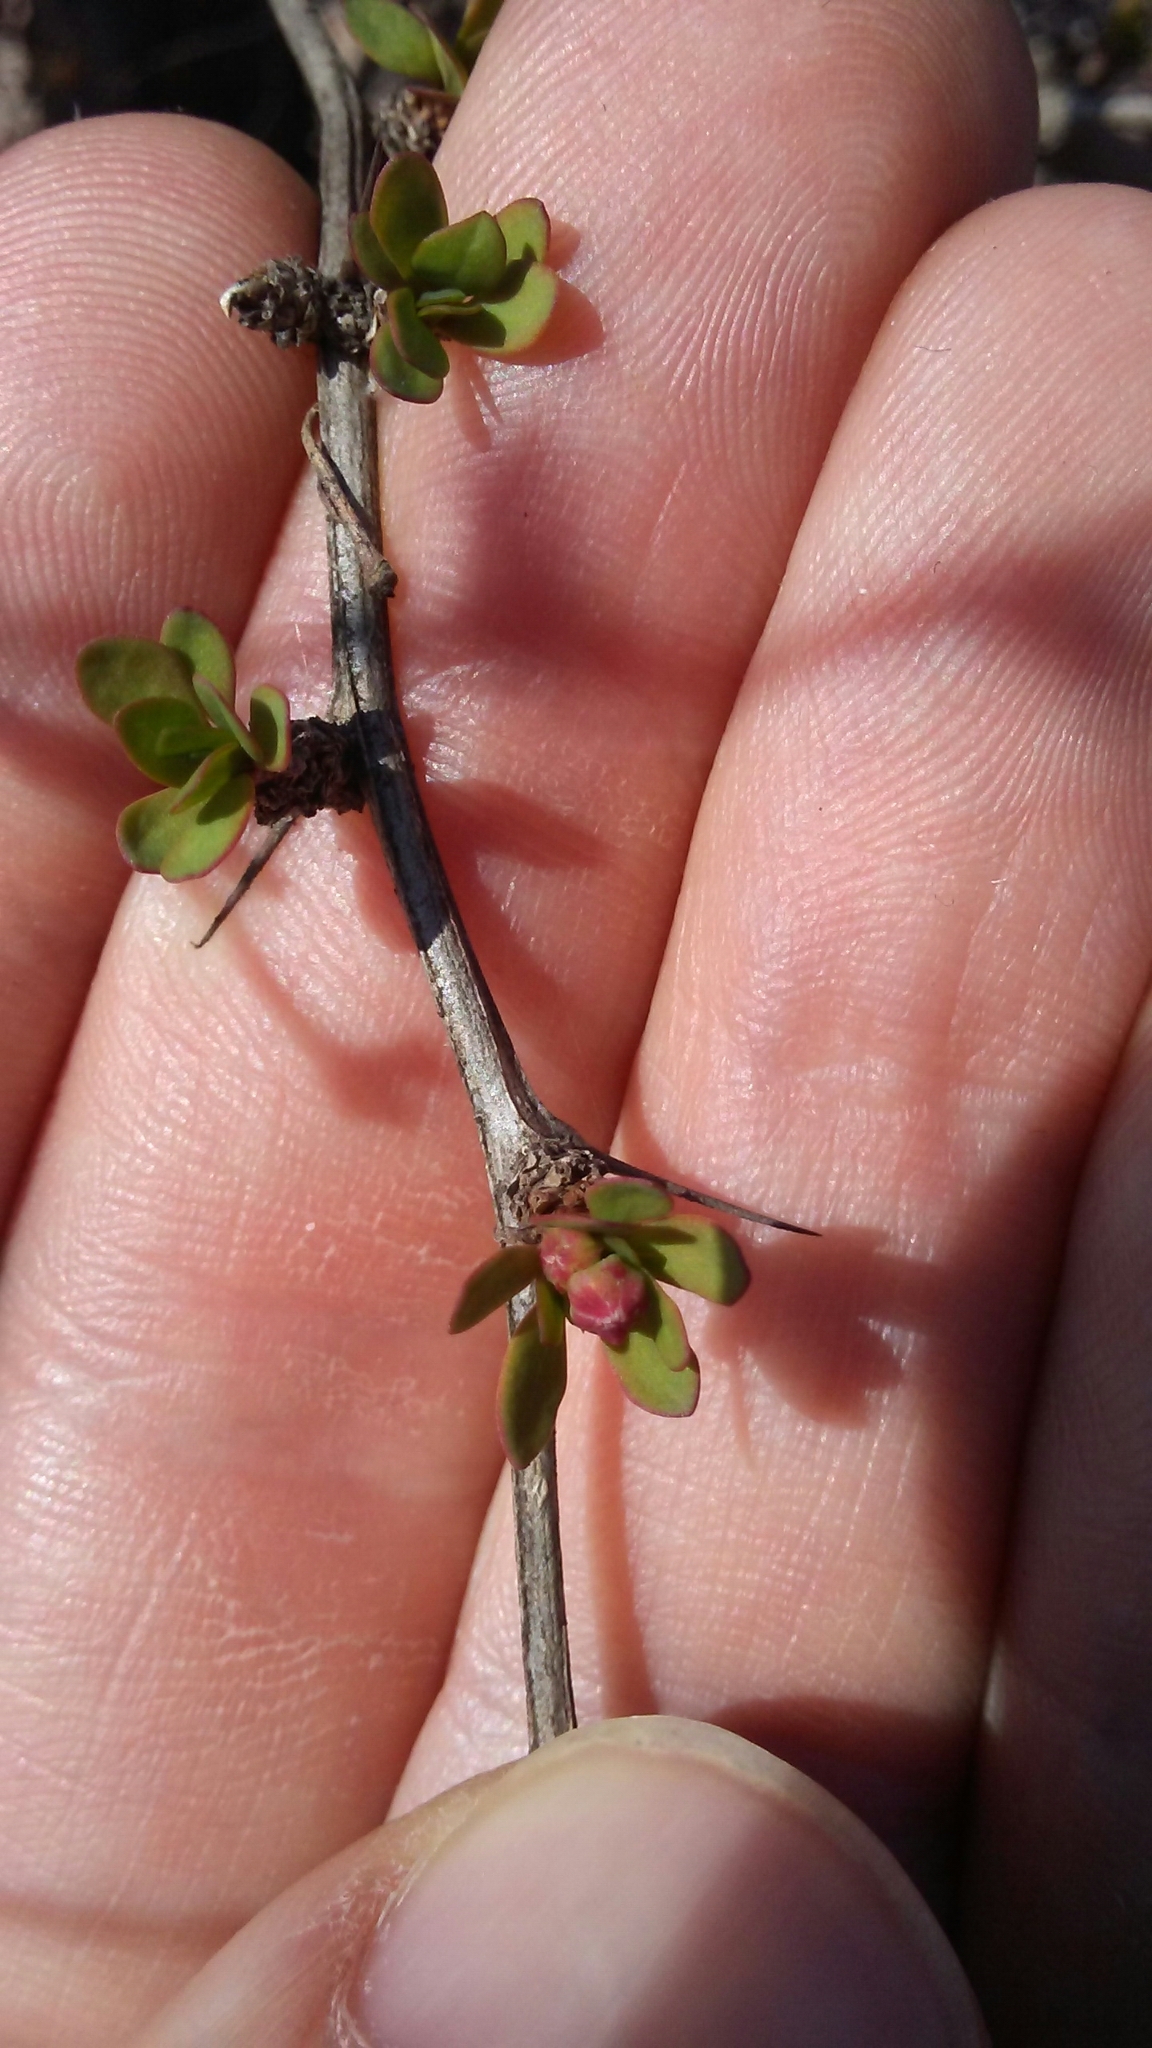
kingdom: Plantae
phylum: Tracheophyta
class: Magnoliopsida
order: Ranunculales
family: Berberidaceae
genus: Berberis
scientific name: Berberis thunbergii
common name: Japanese barberry
